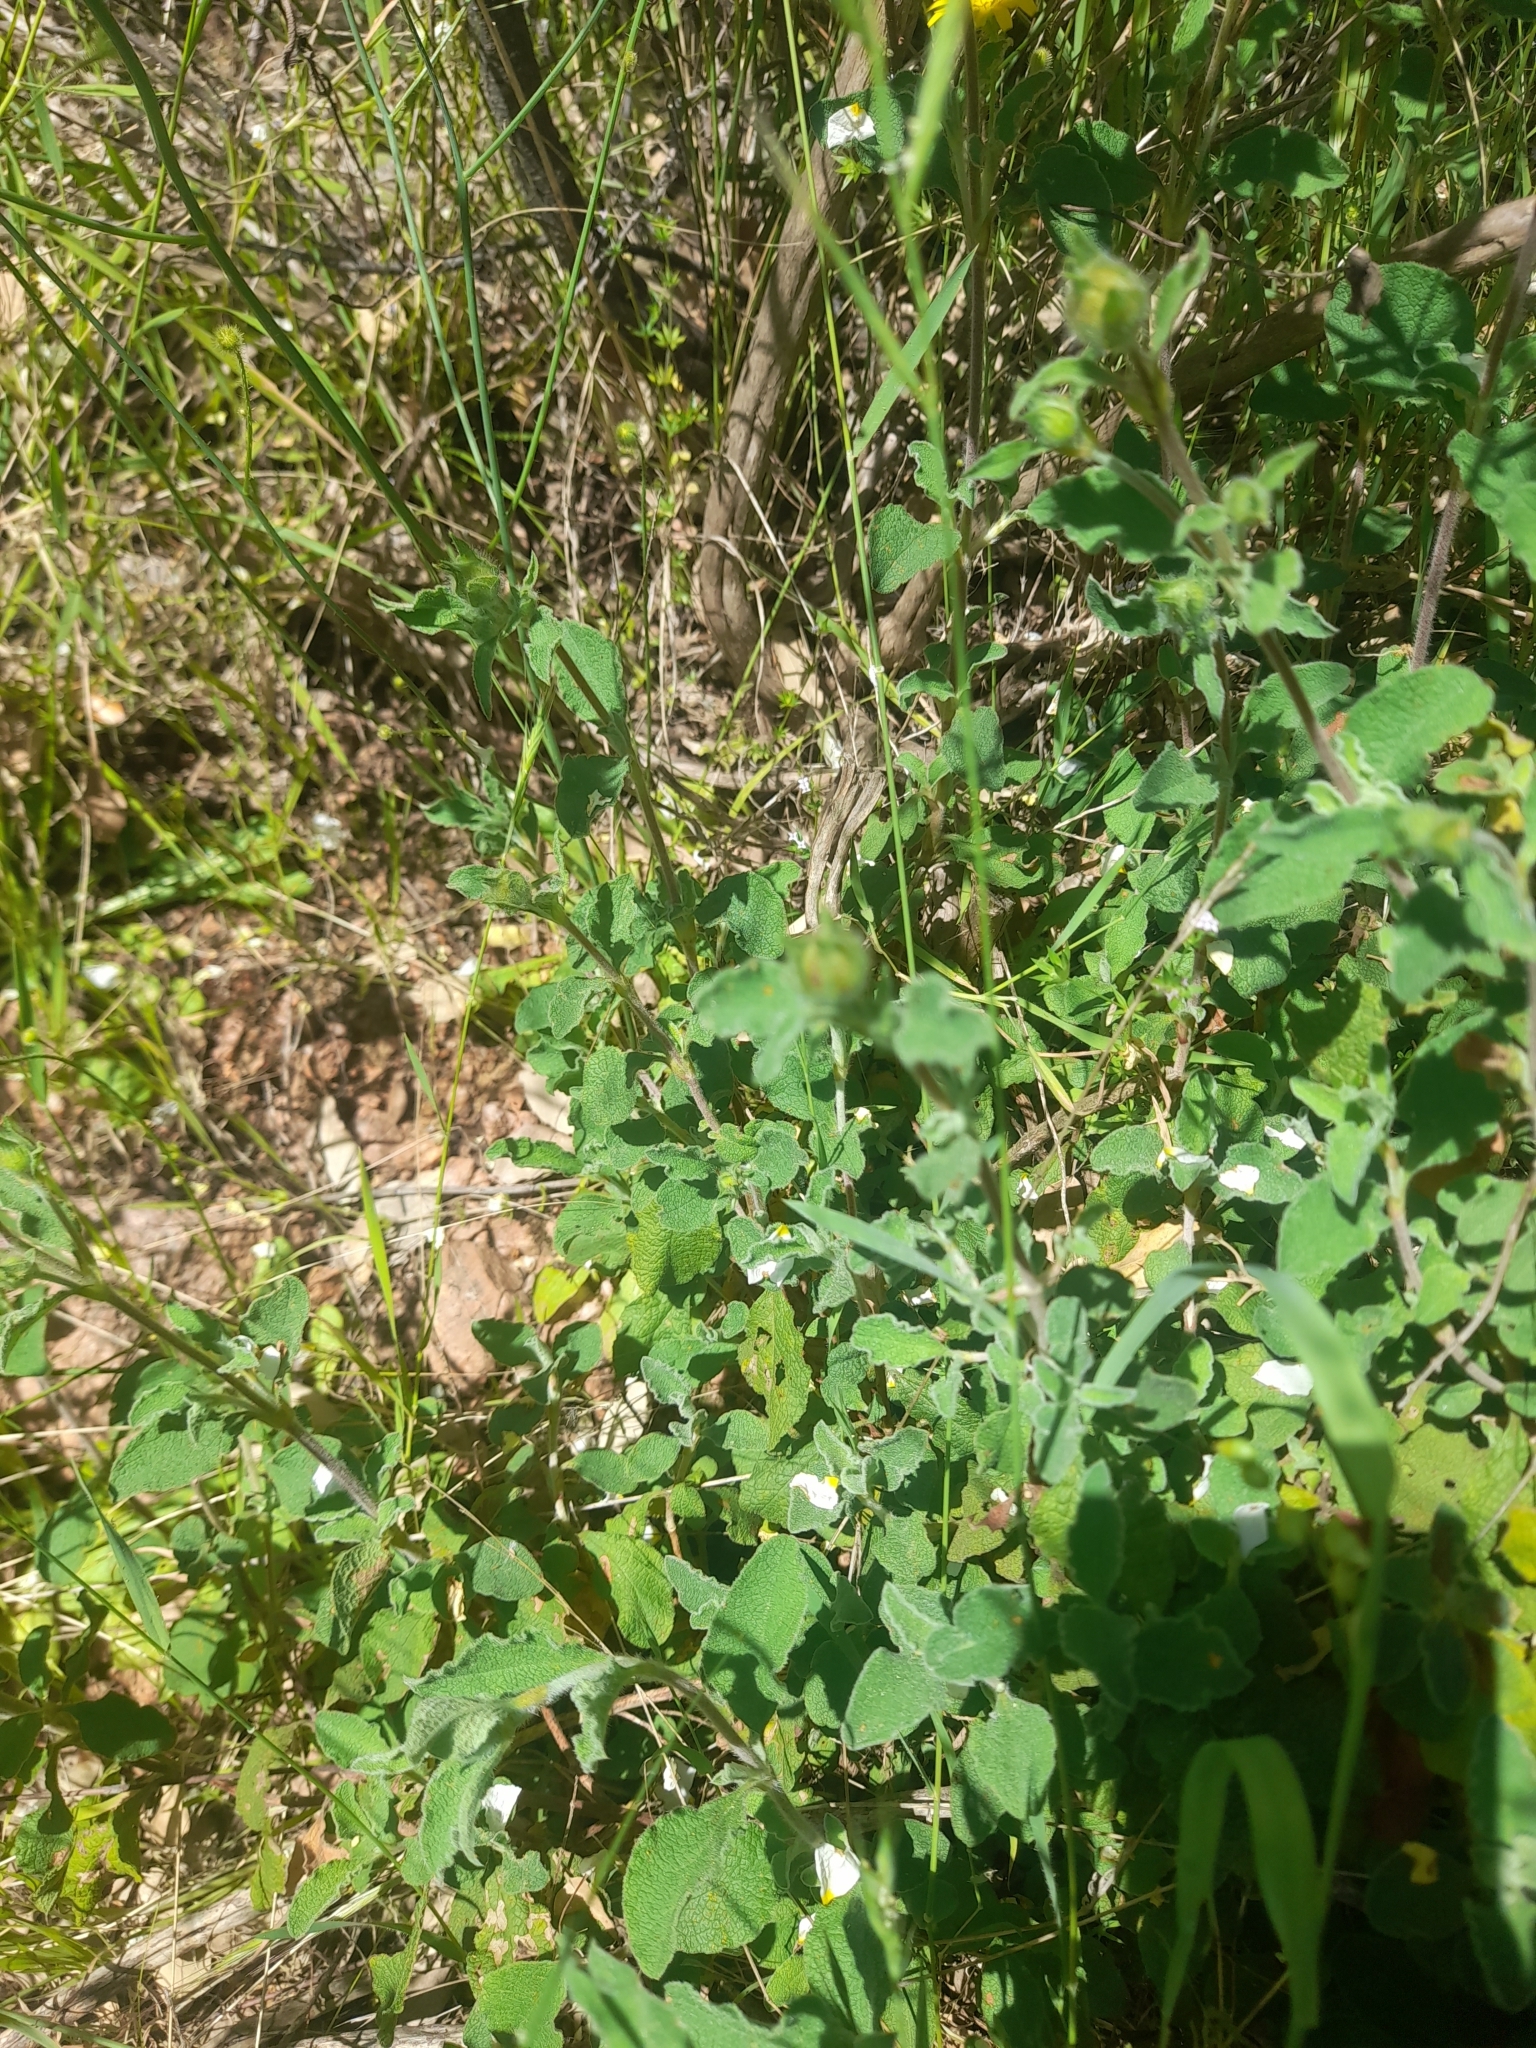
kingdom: Plantae
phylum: Tracheophyta
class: Magnoliopsida
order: Malvales
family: Cistaceae
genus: Cistus
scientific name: Cistus creticus
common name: Cretan rockrose
